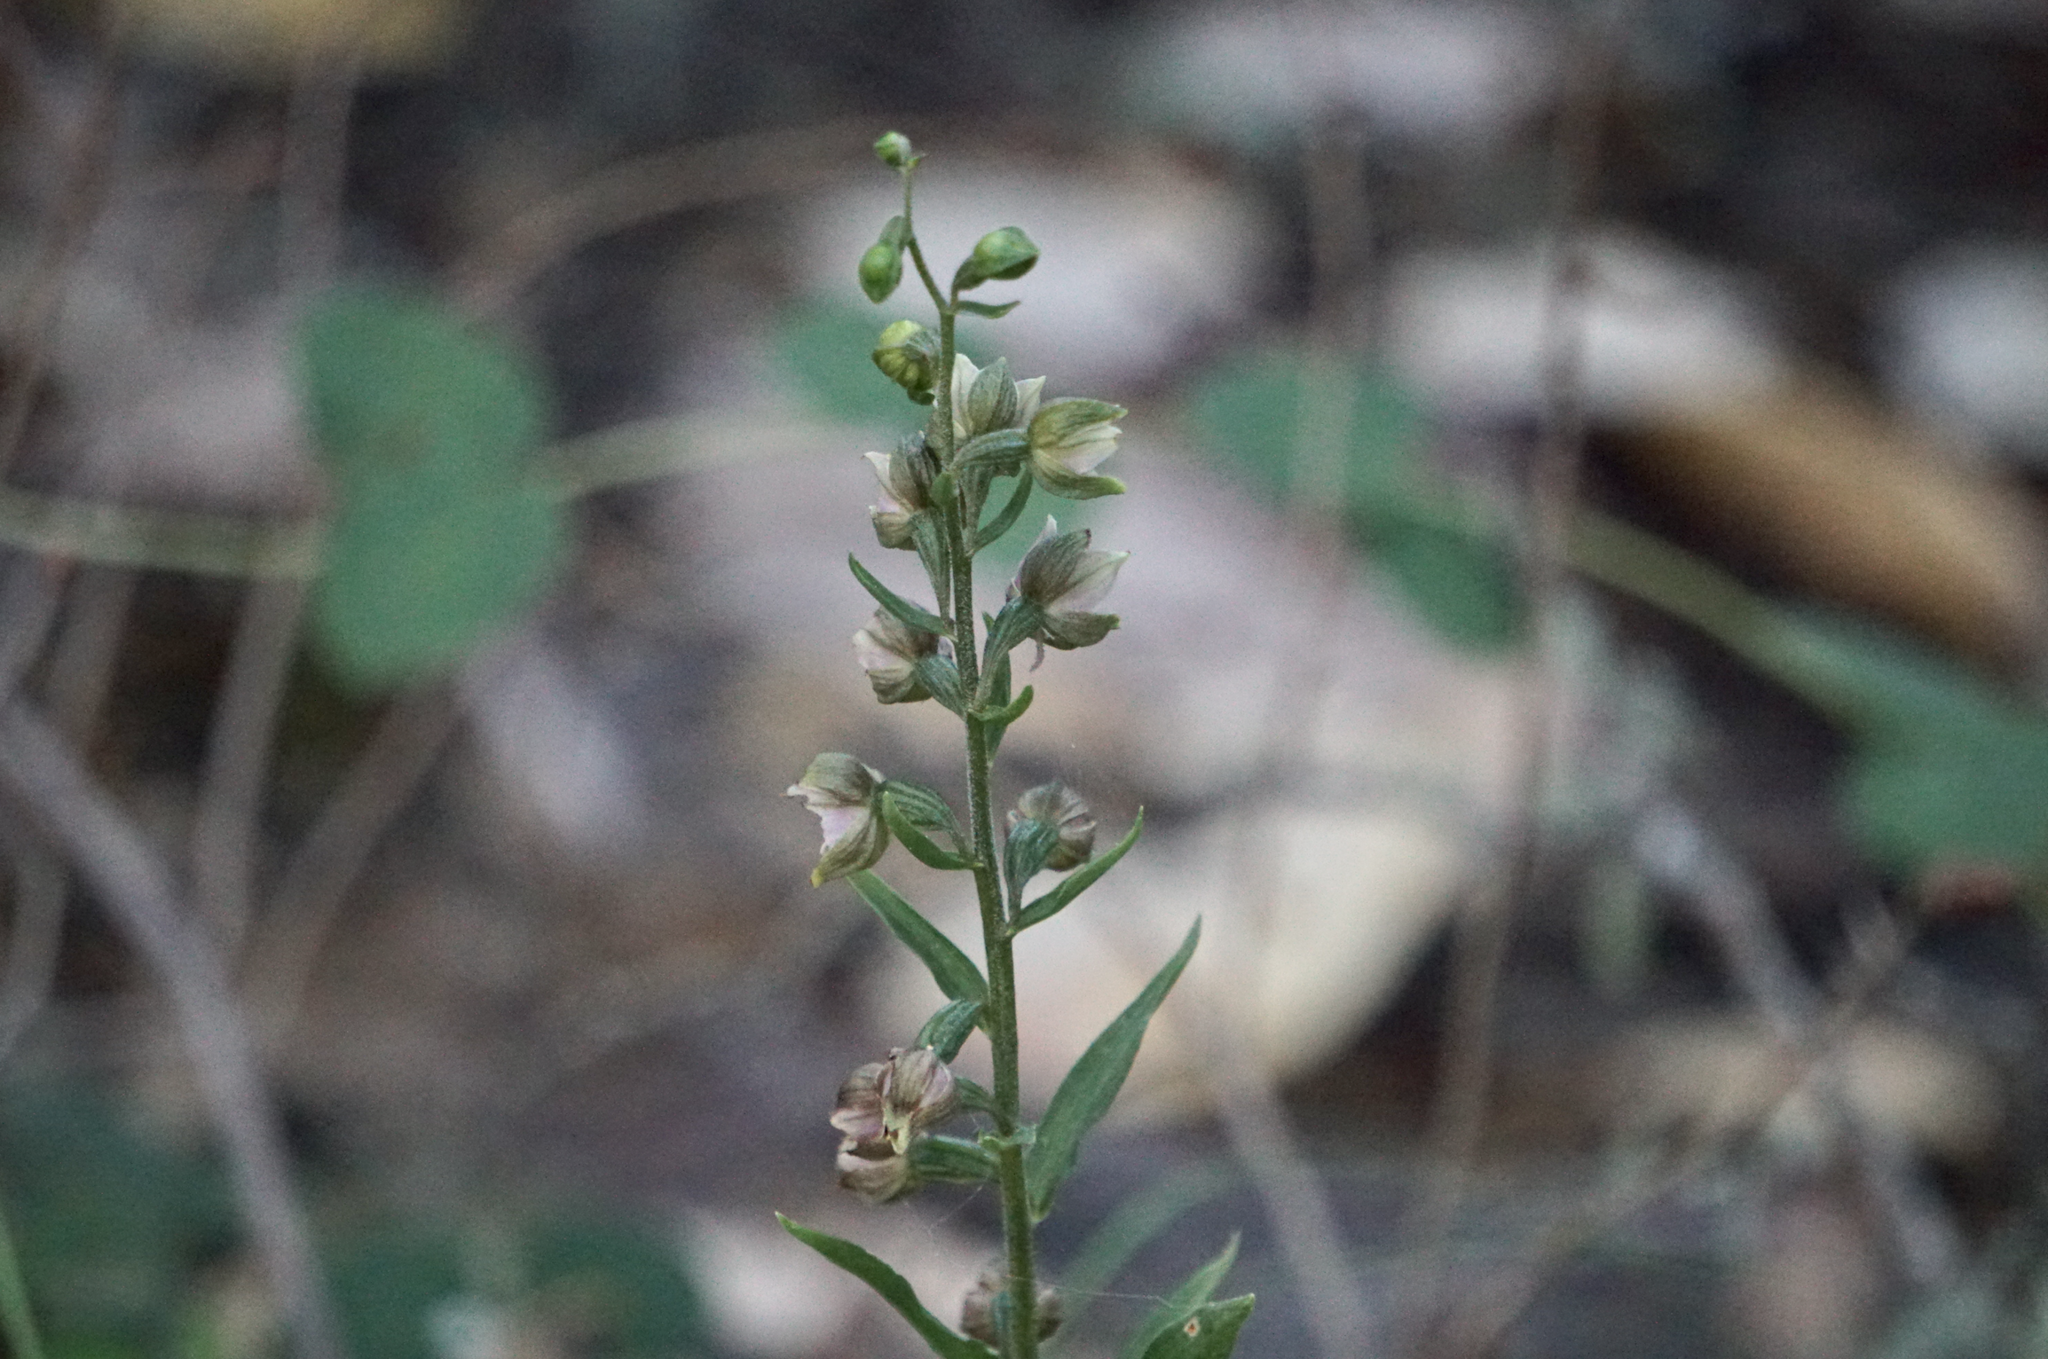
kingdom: Plantae
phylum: Tracheophyta
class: Liliopsida
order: Asparagales
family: Orchidaceae
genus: Epipactis
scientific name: Epipactis helleborine
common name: Broad-leaved helleborine
